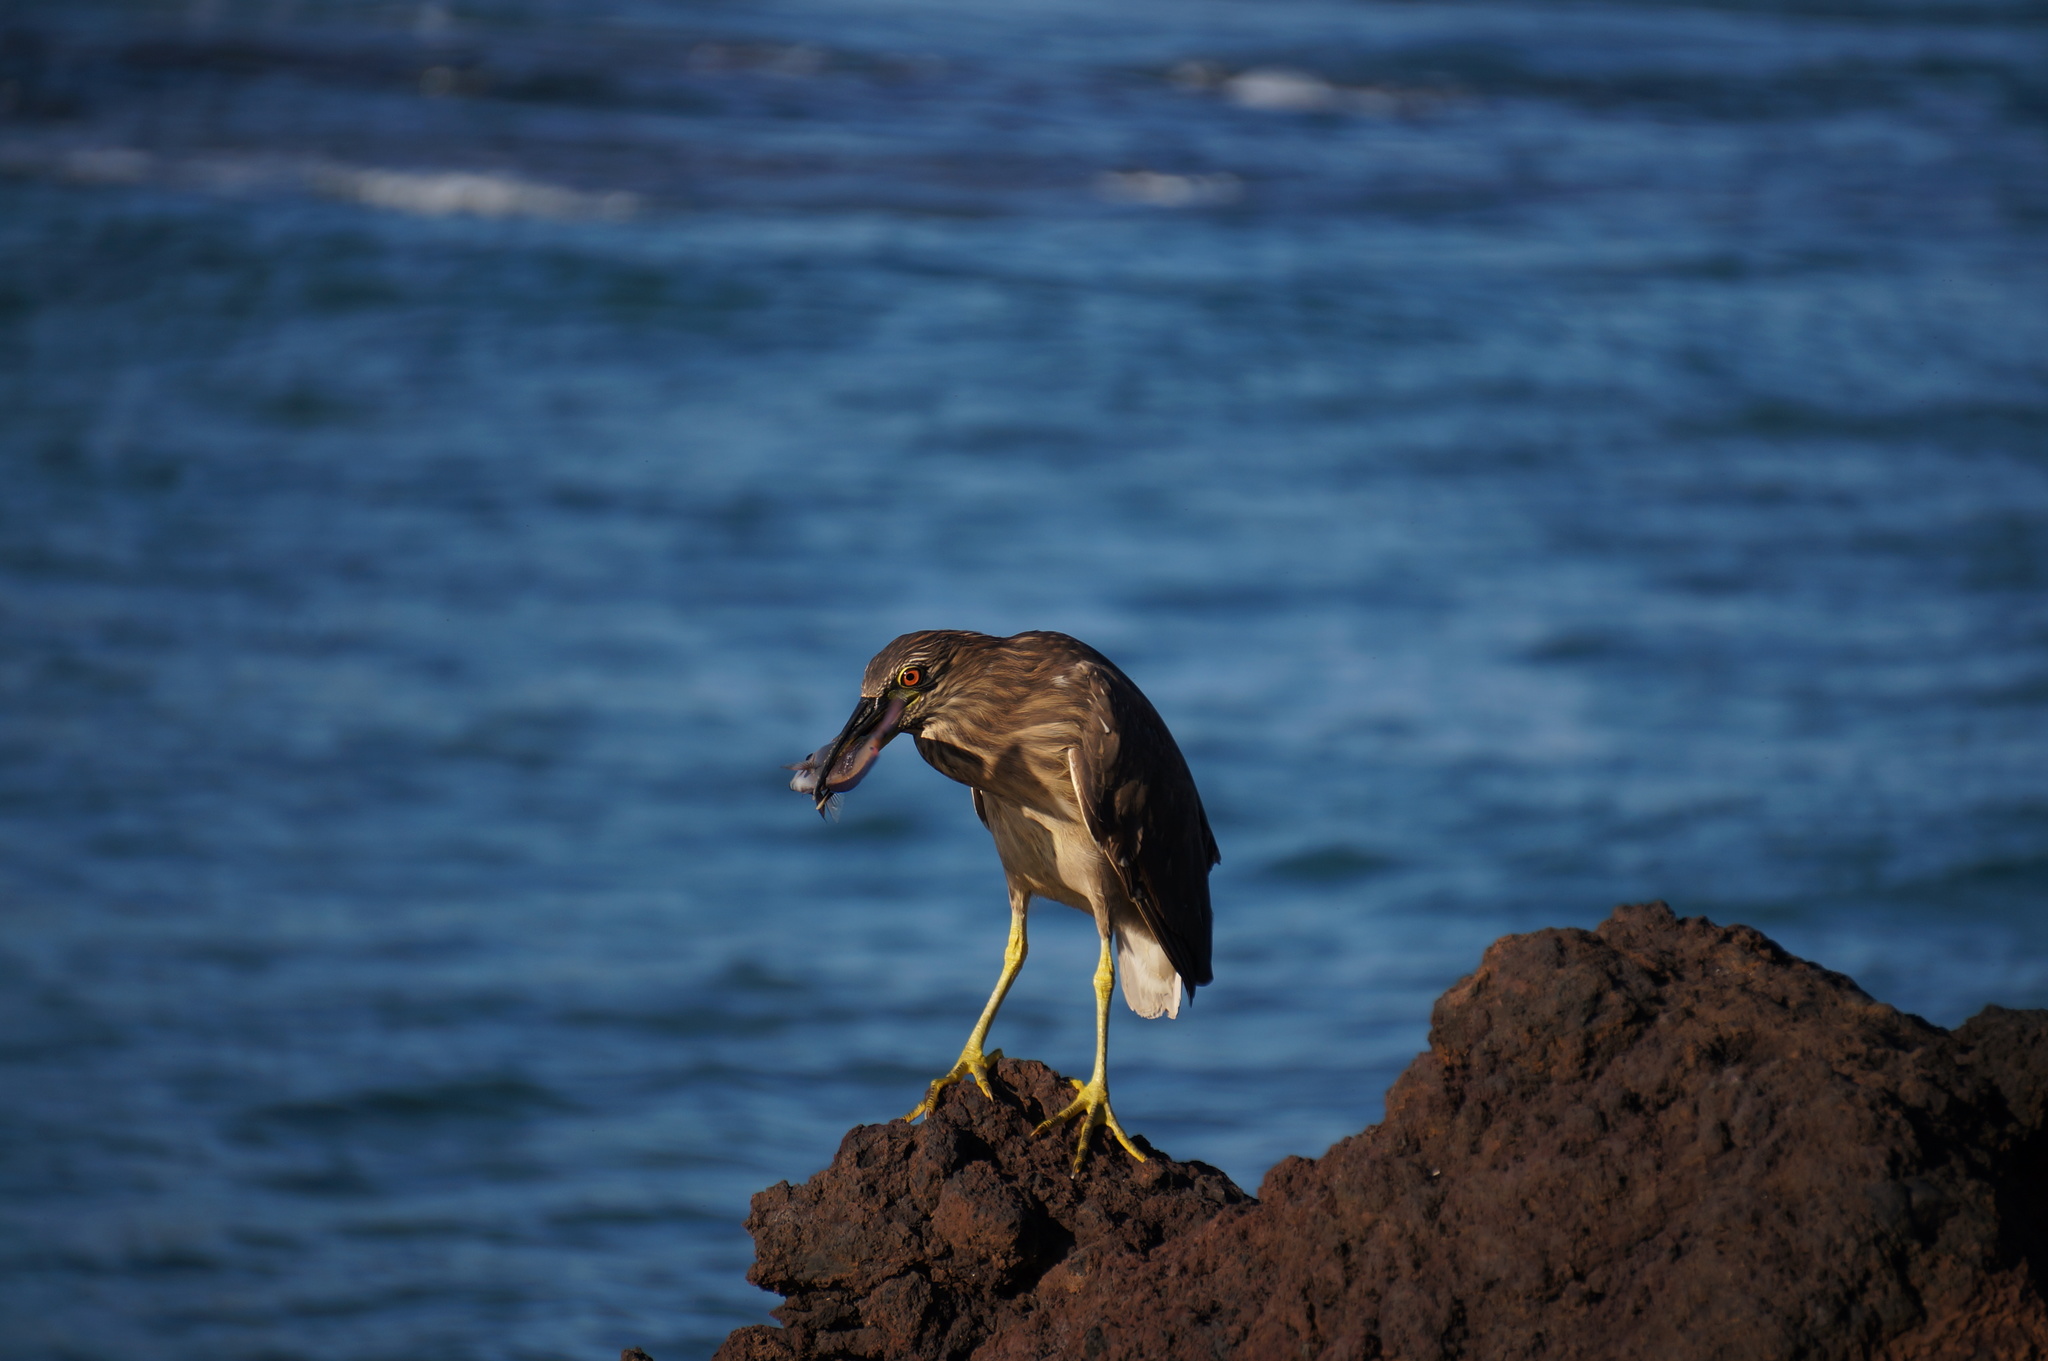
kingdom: Animalia
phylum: Chordata
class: Aves
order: Pelecaniformes
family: Ardeidae
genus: Nycticorax
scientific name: Nycticorax nycticorax
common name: Black-crowned night heron
